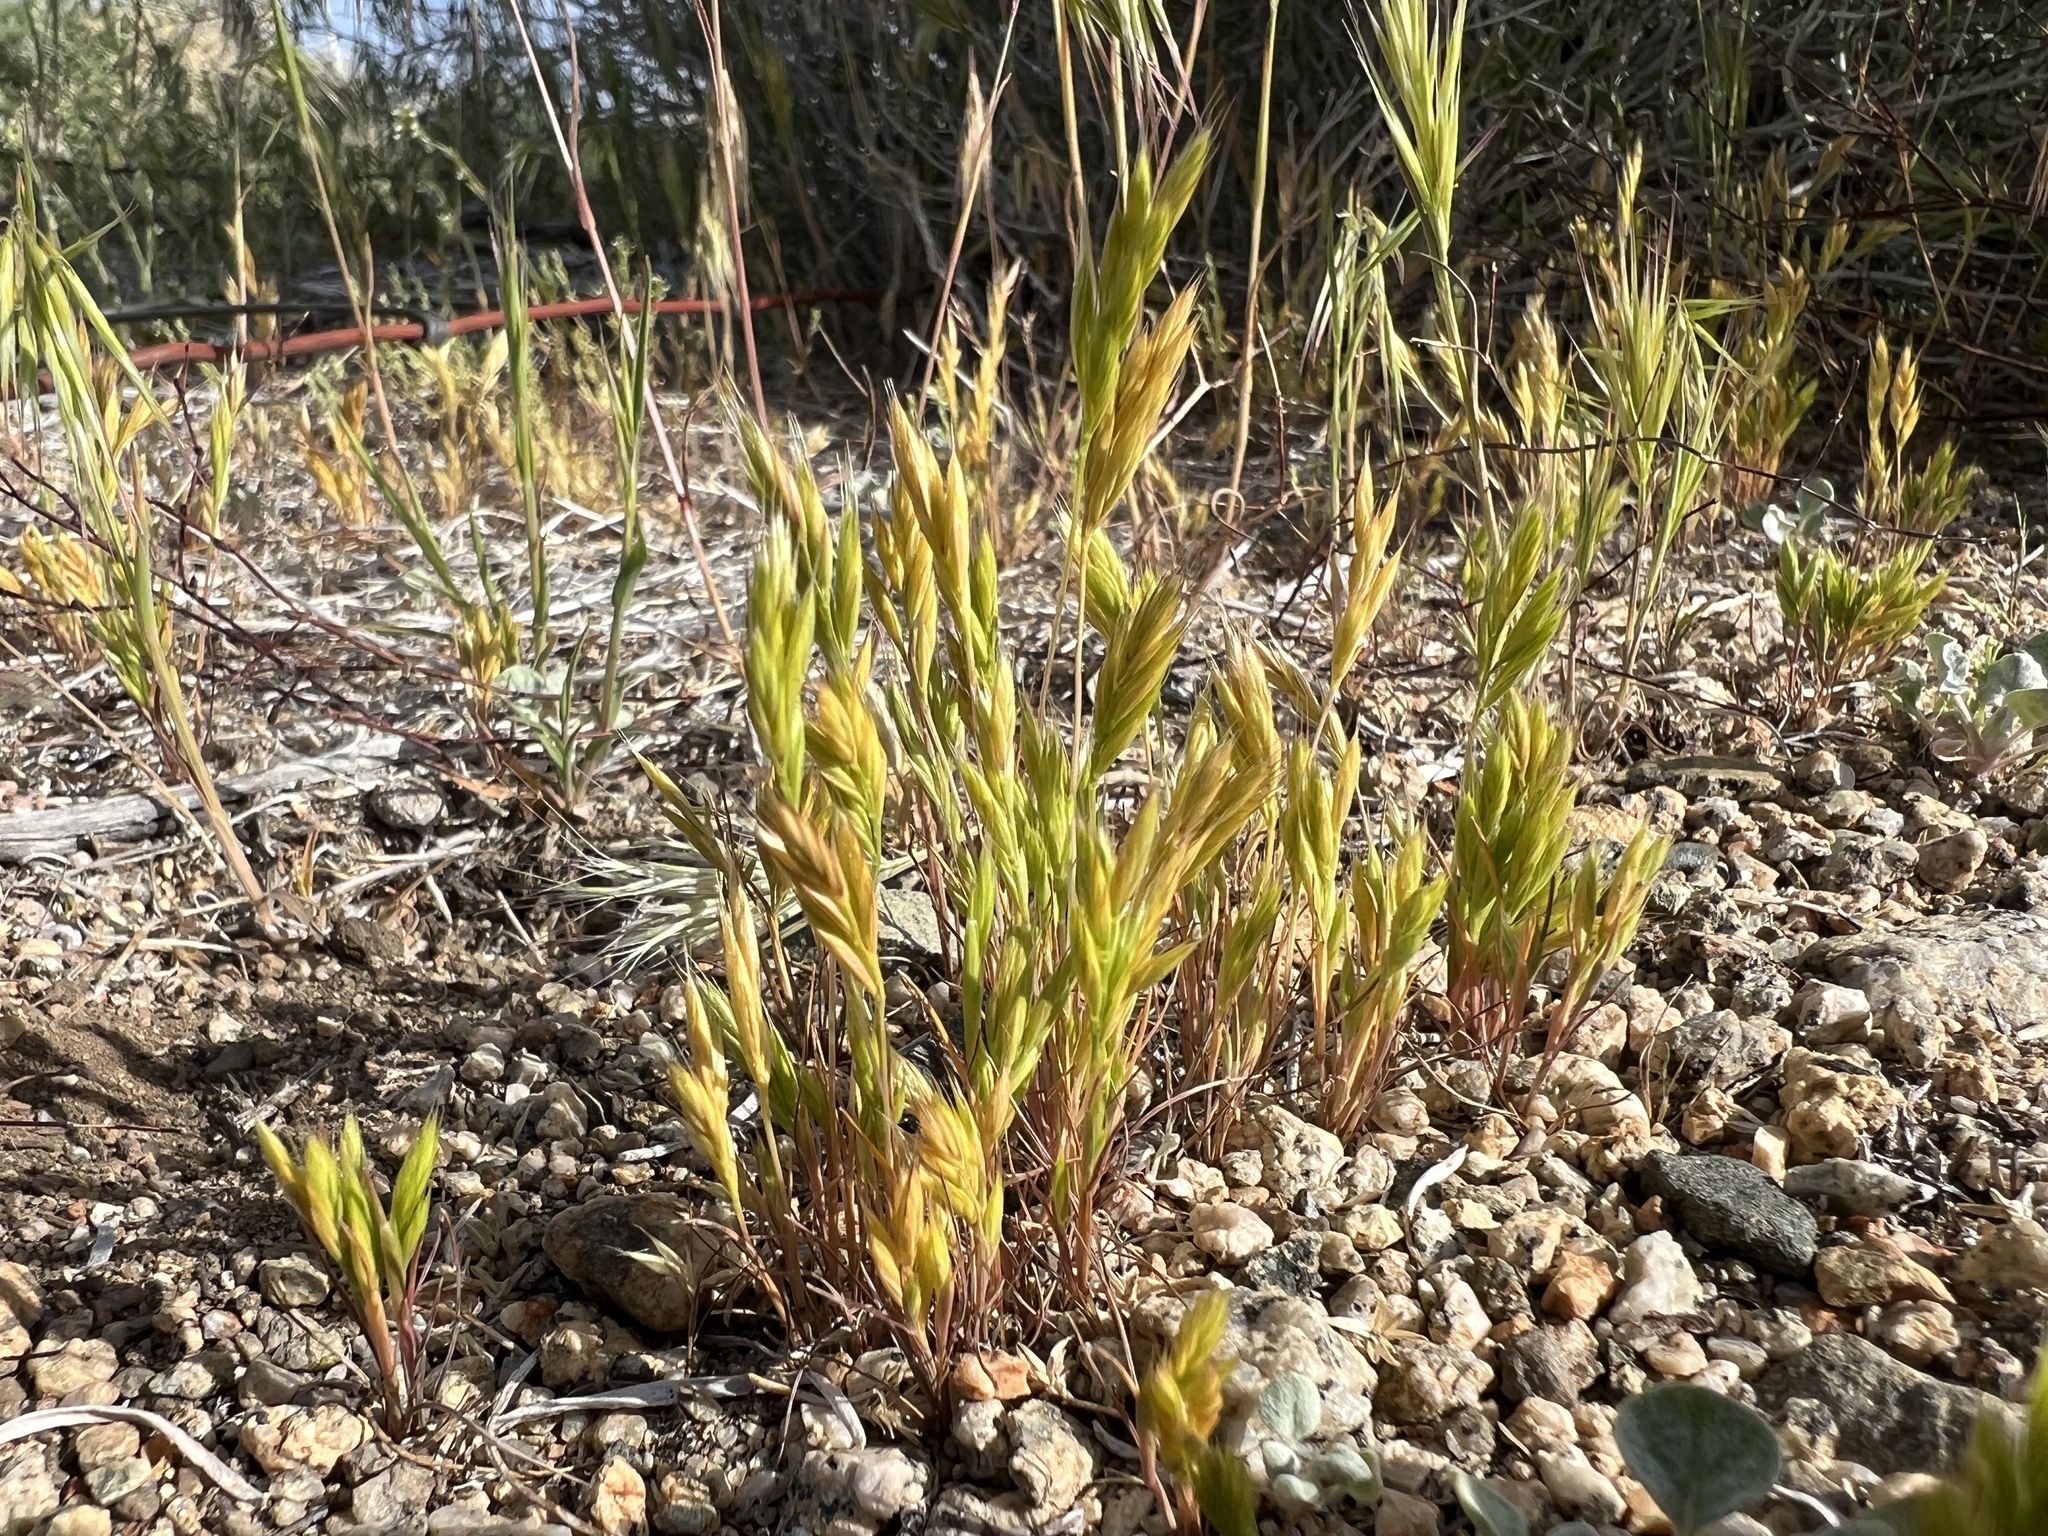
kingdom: Plantae
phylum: Tracheophyta
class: Liliopsida
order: Poales
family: Poaceae
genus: Festuca
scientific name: Festuca octoflora
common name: Sixweeks grass
